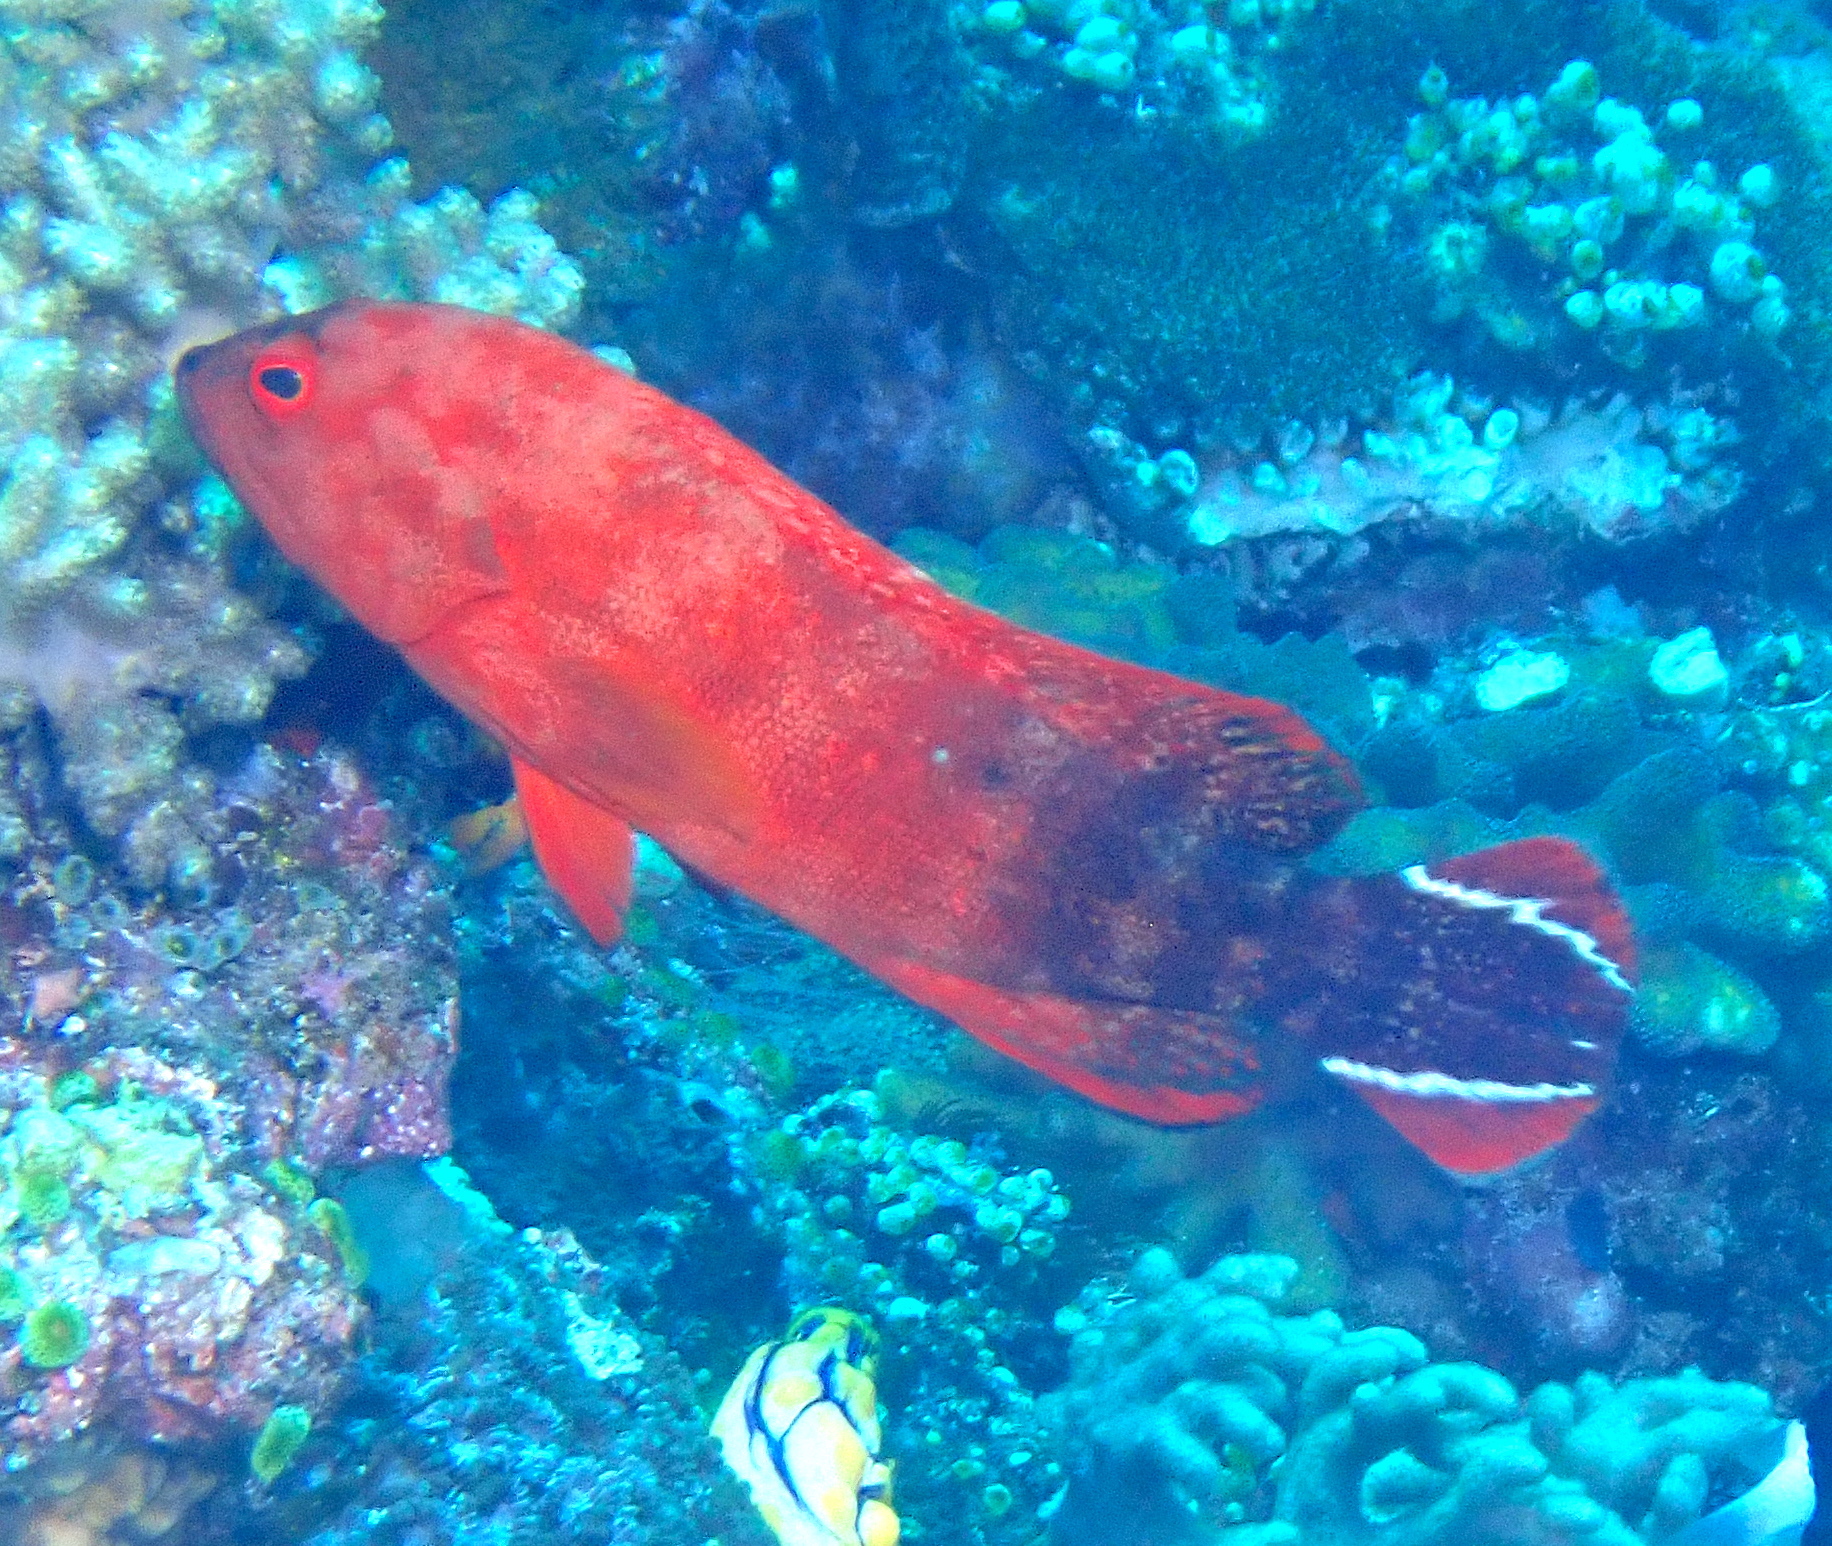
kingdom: Animalia
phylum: Chordata
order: Perciformes
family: Serranidae
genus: Cephalopholis
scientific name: Cephalopholis urodeta
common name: Darkfin hind
